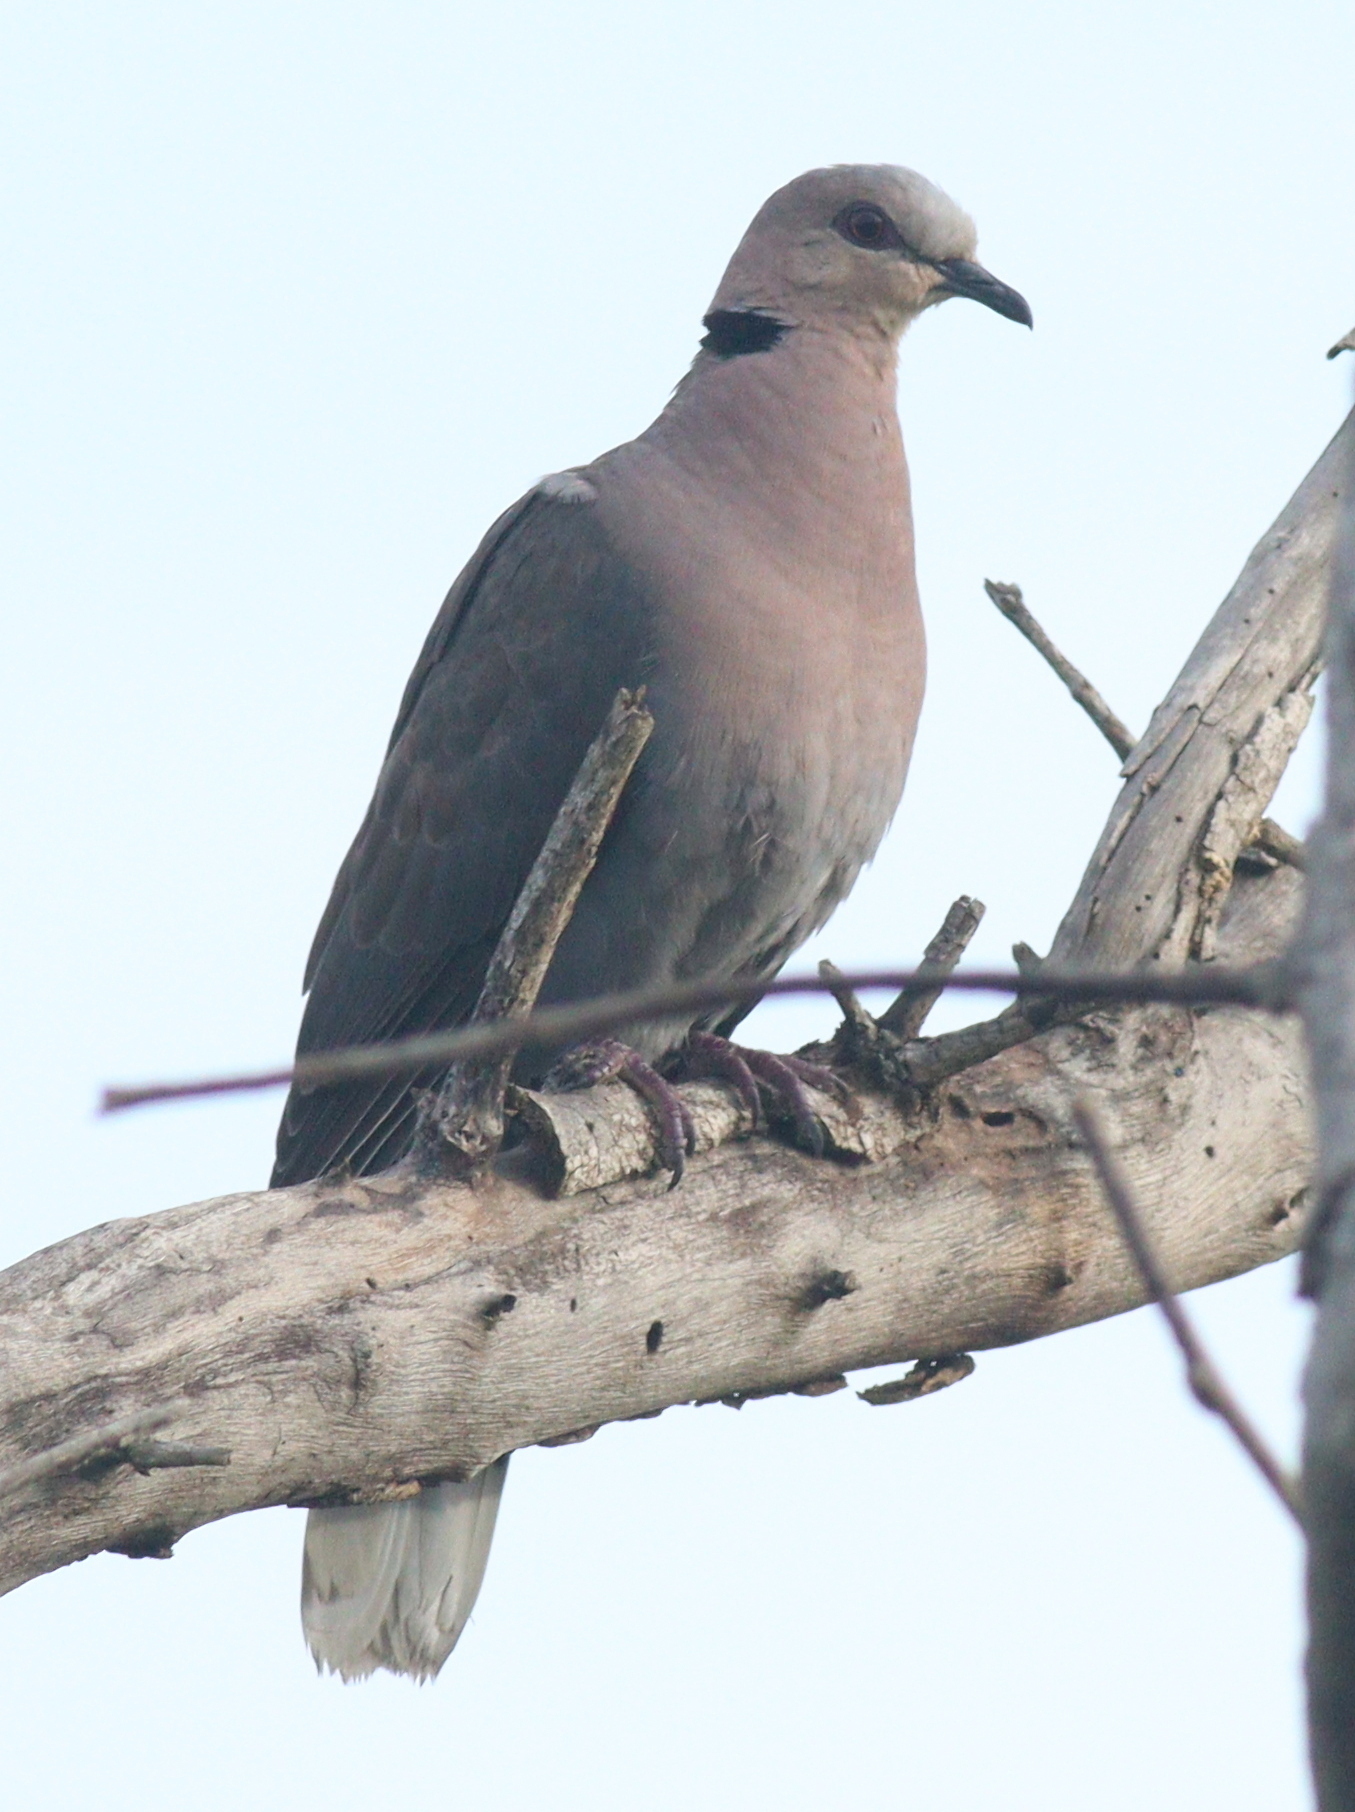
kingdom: Animalia
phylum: Chordata
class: Aves
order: Columbiformes
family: Columbidae
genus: Streptopelia
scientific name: Streptopelia semitorquata
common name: Red-eyed dove
